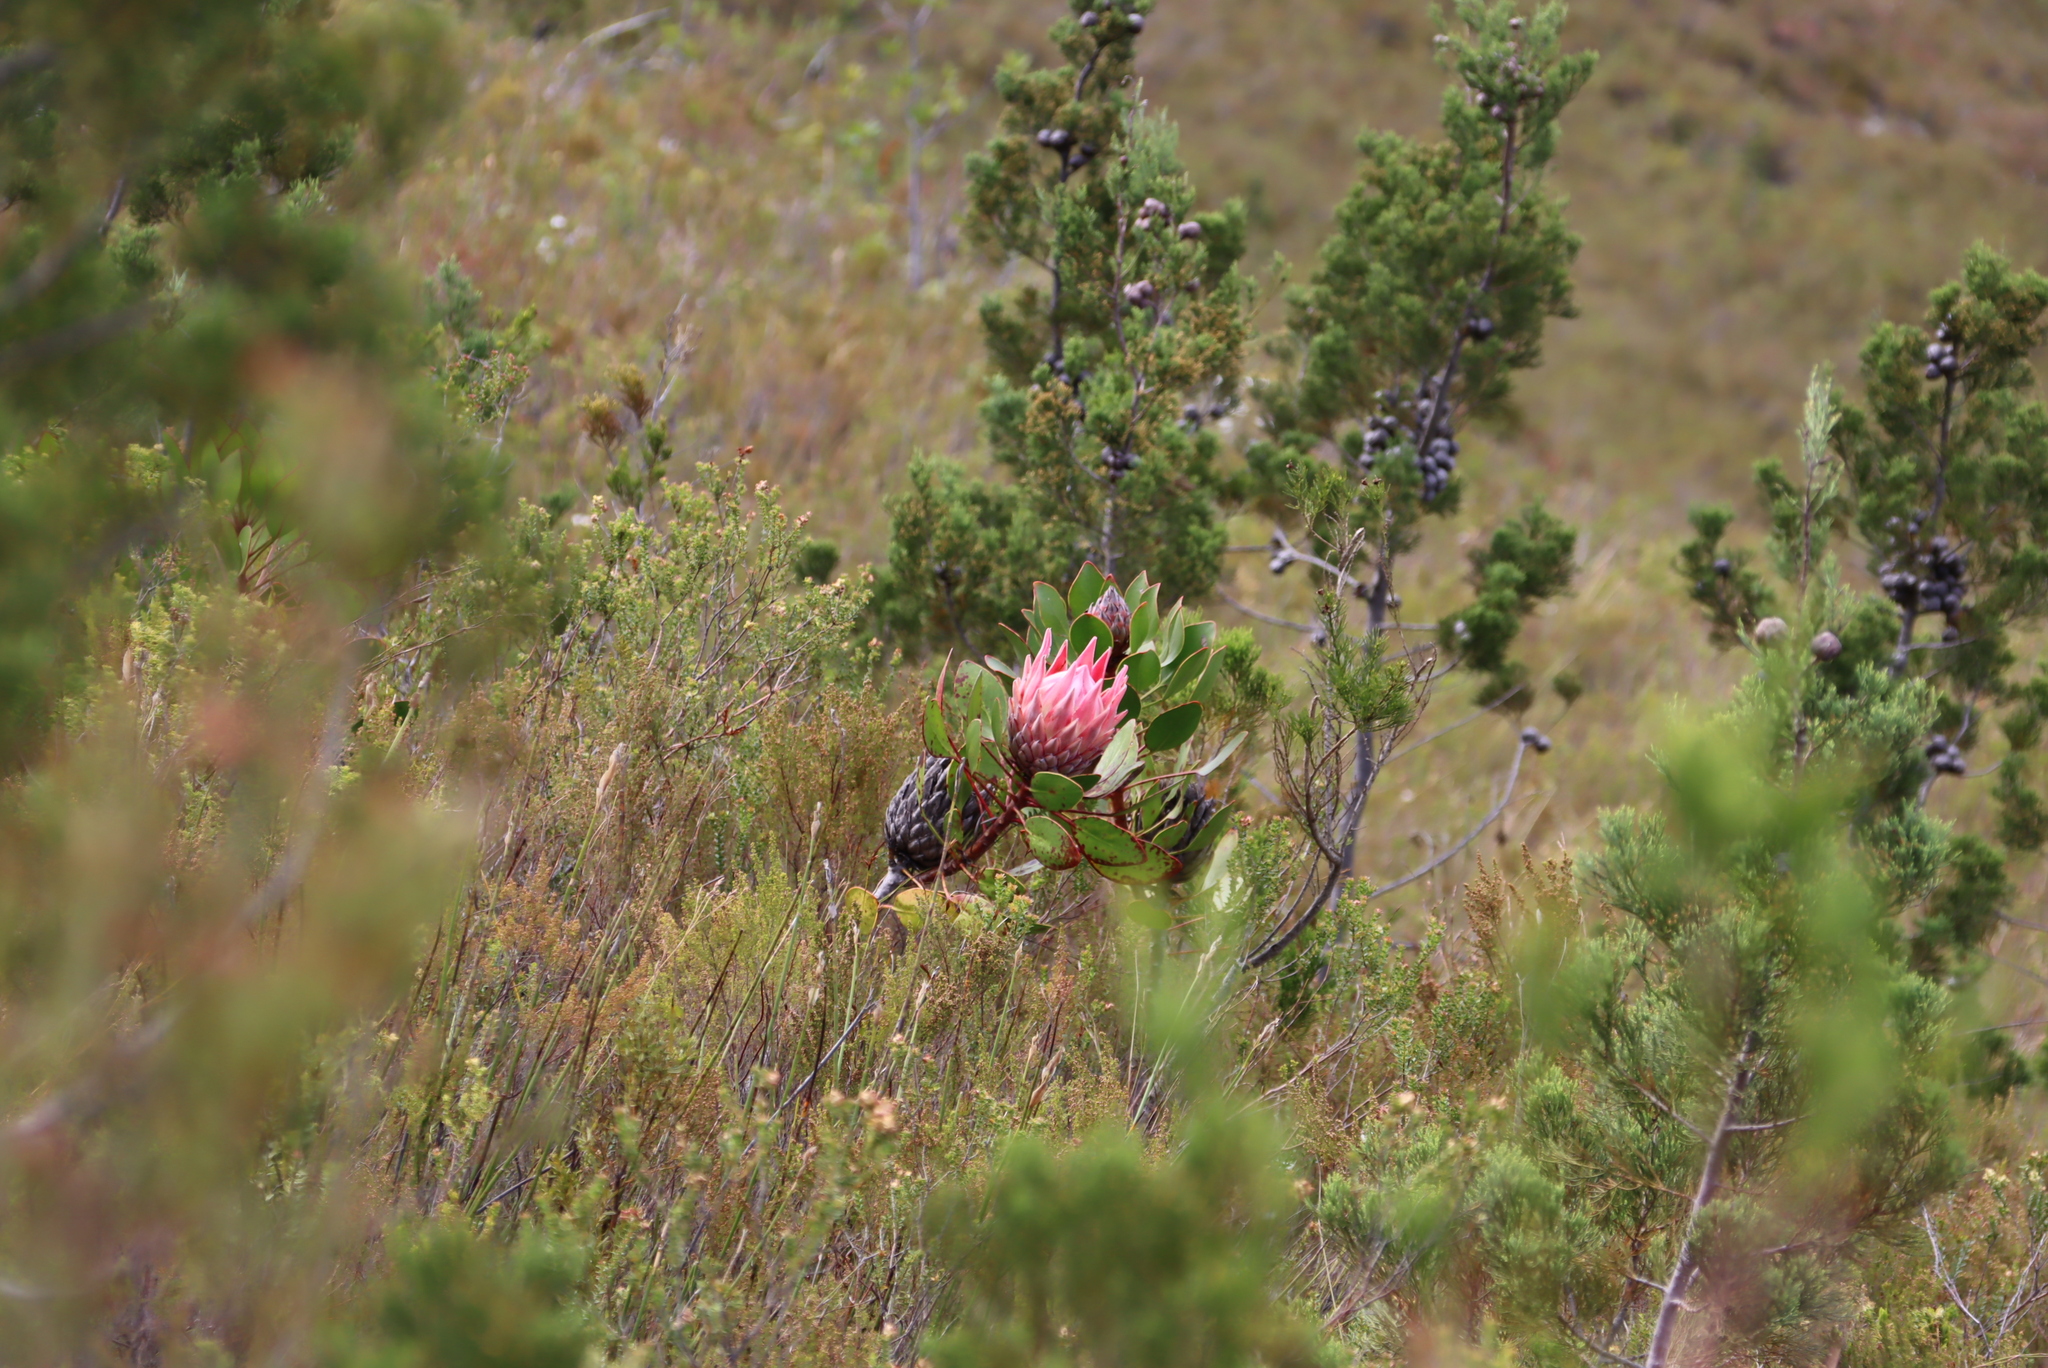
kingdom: Plantae
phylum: Tracheophyta
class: Magnoliopsida
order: Proteales
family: Proteaceae
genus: Protea
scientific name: Protea cynaroides
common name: King protea
